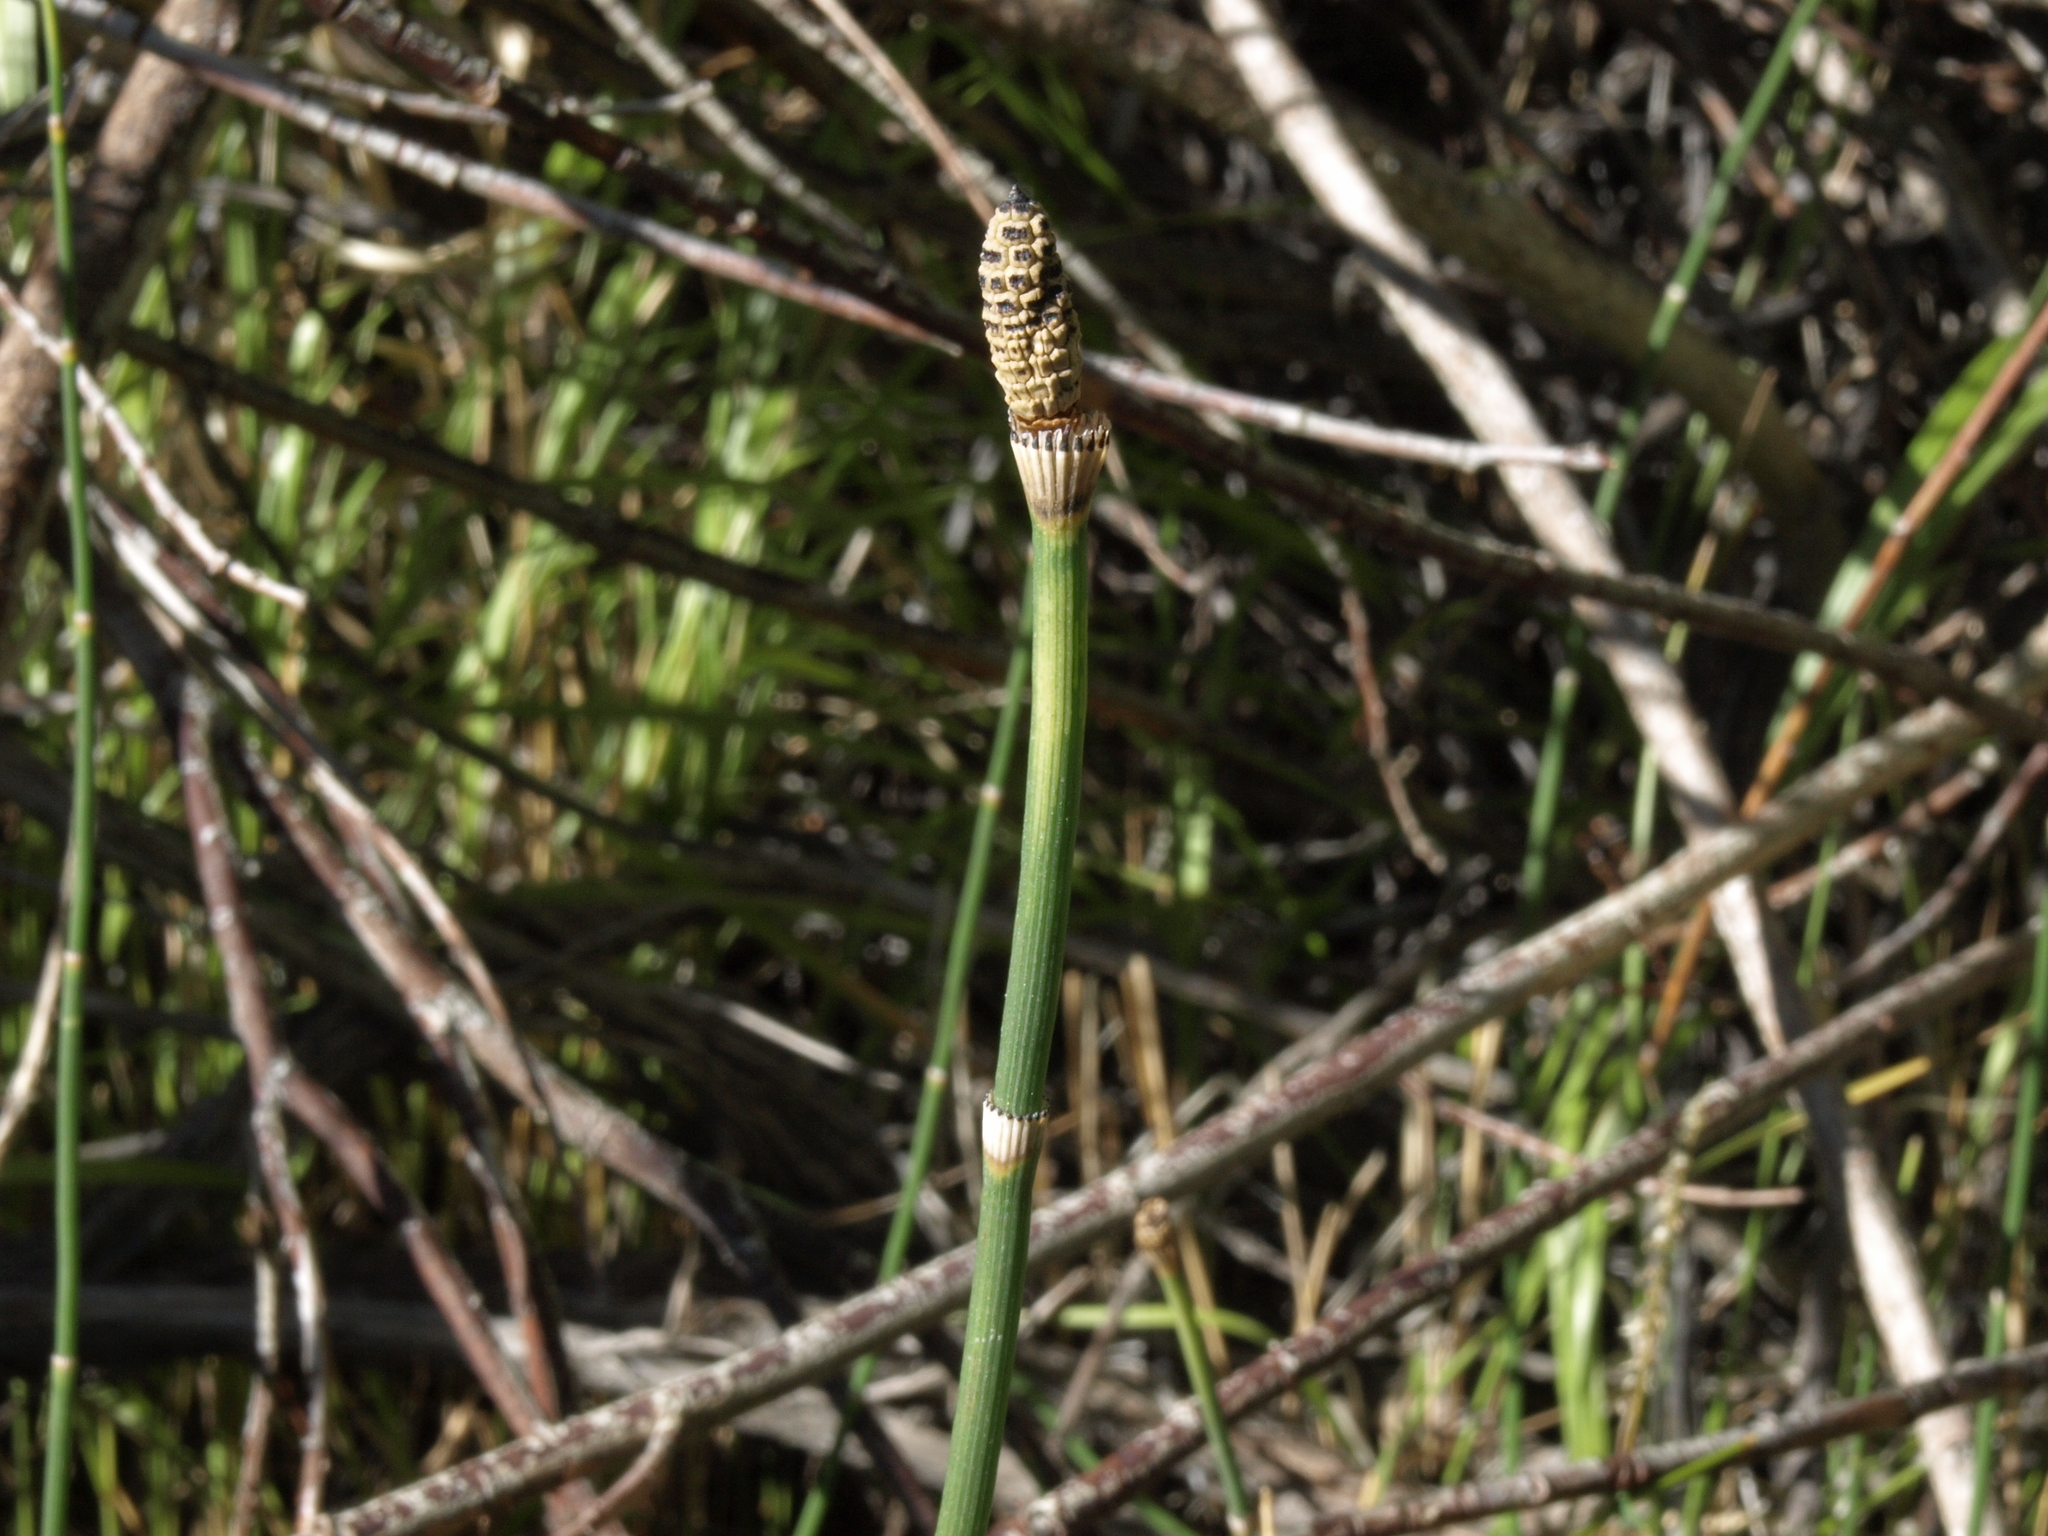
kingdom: Plantae
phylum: Tracheophyta
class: Polypodiopsida
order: Equisetales
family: Equisetaceae
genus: Equisetum
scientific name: Equisetum ferrissii
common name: Ferriss' horsetail
